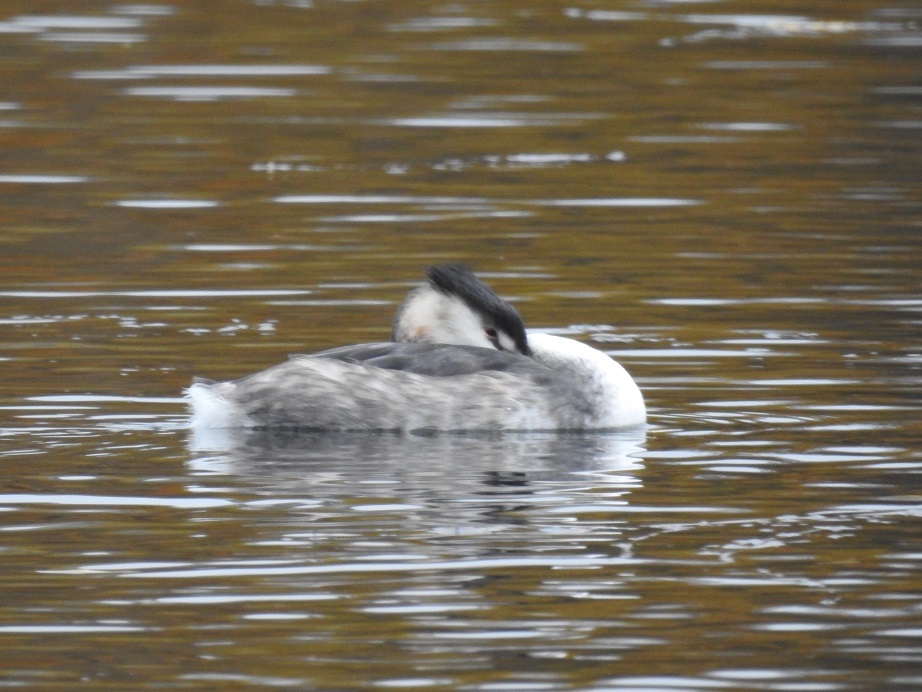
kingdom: Animalia
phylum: Chordata
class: Aves
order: Podicipediformes
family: Podicipedidae
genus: Podiceps
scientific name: Podiceps cristatus
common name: Great crested grebe
